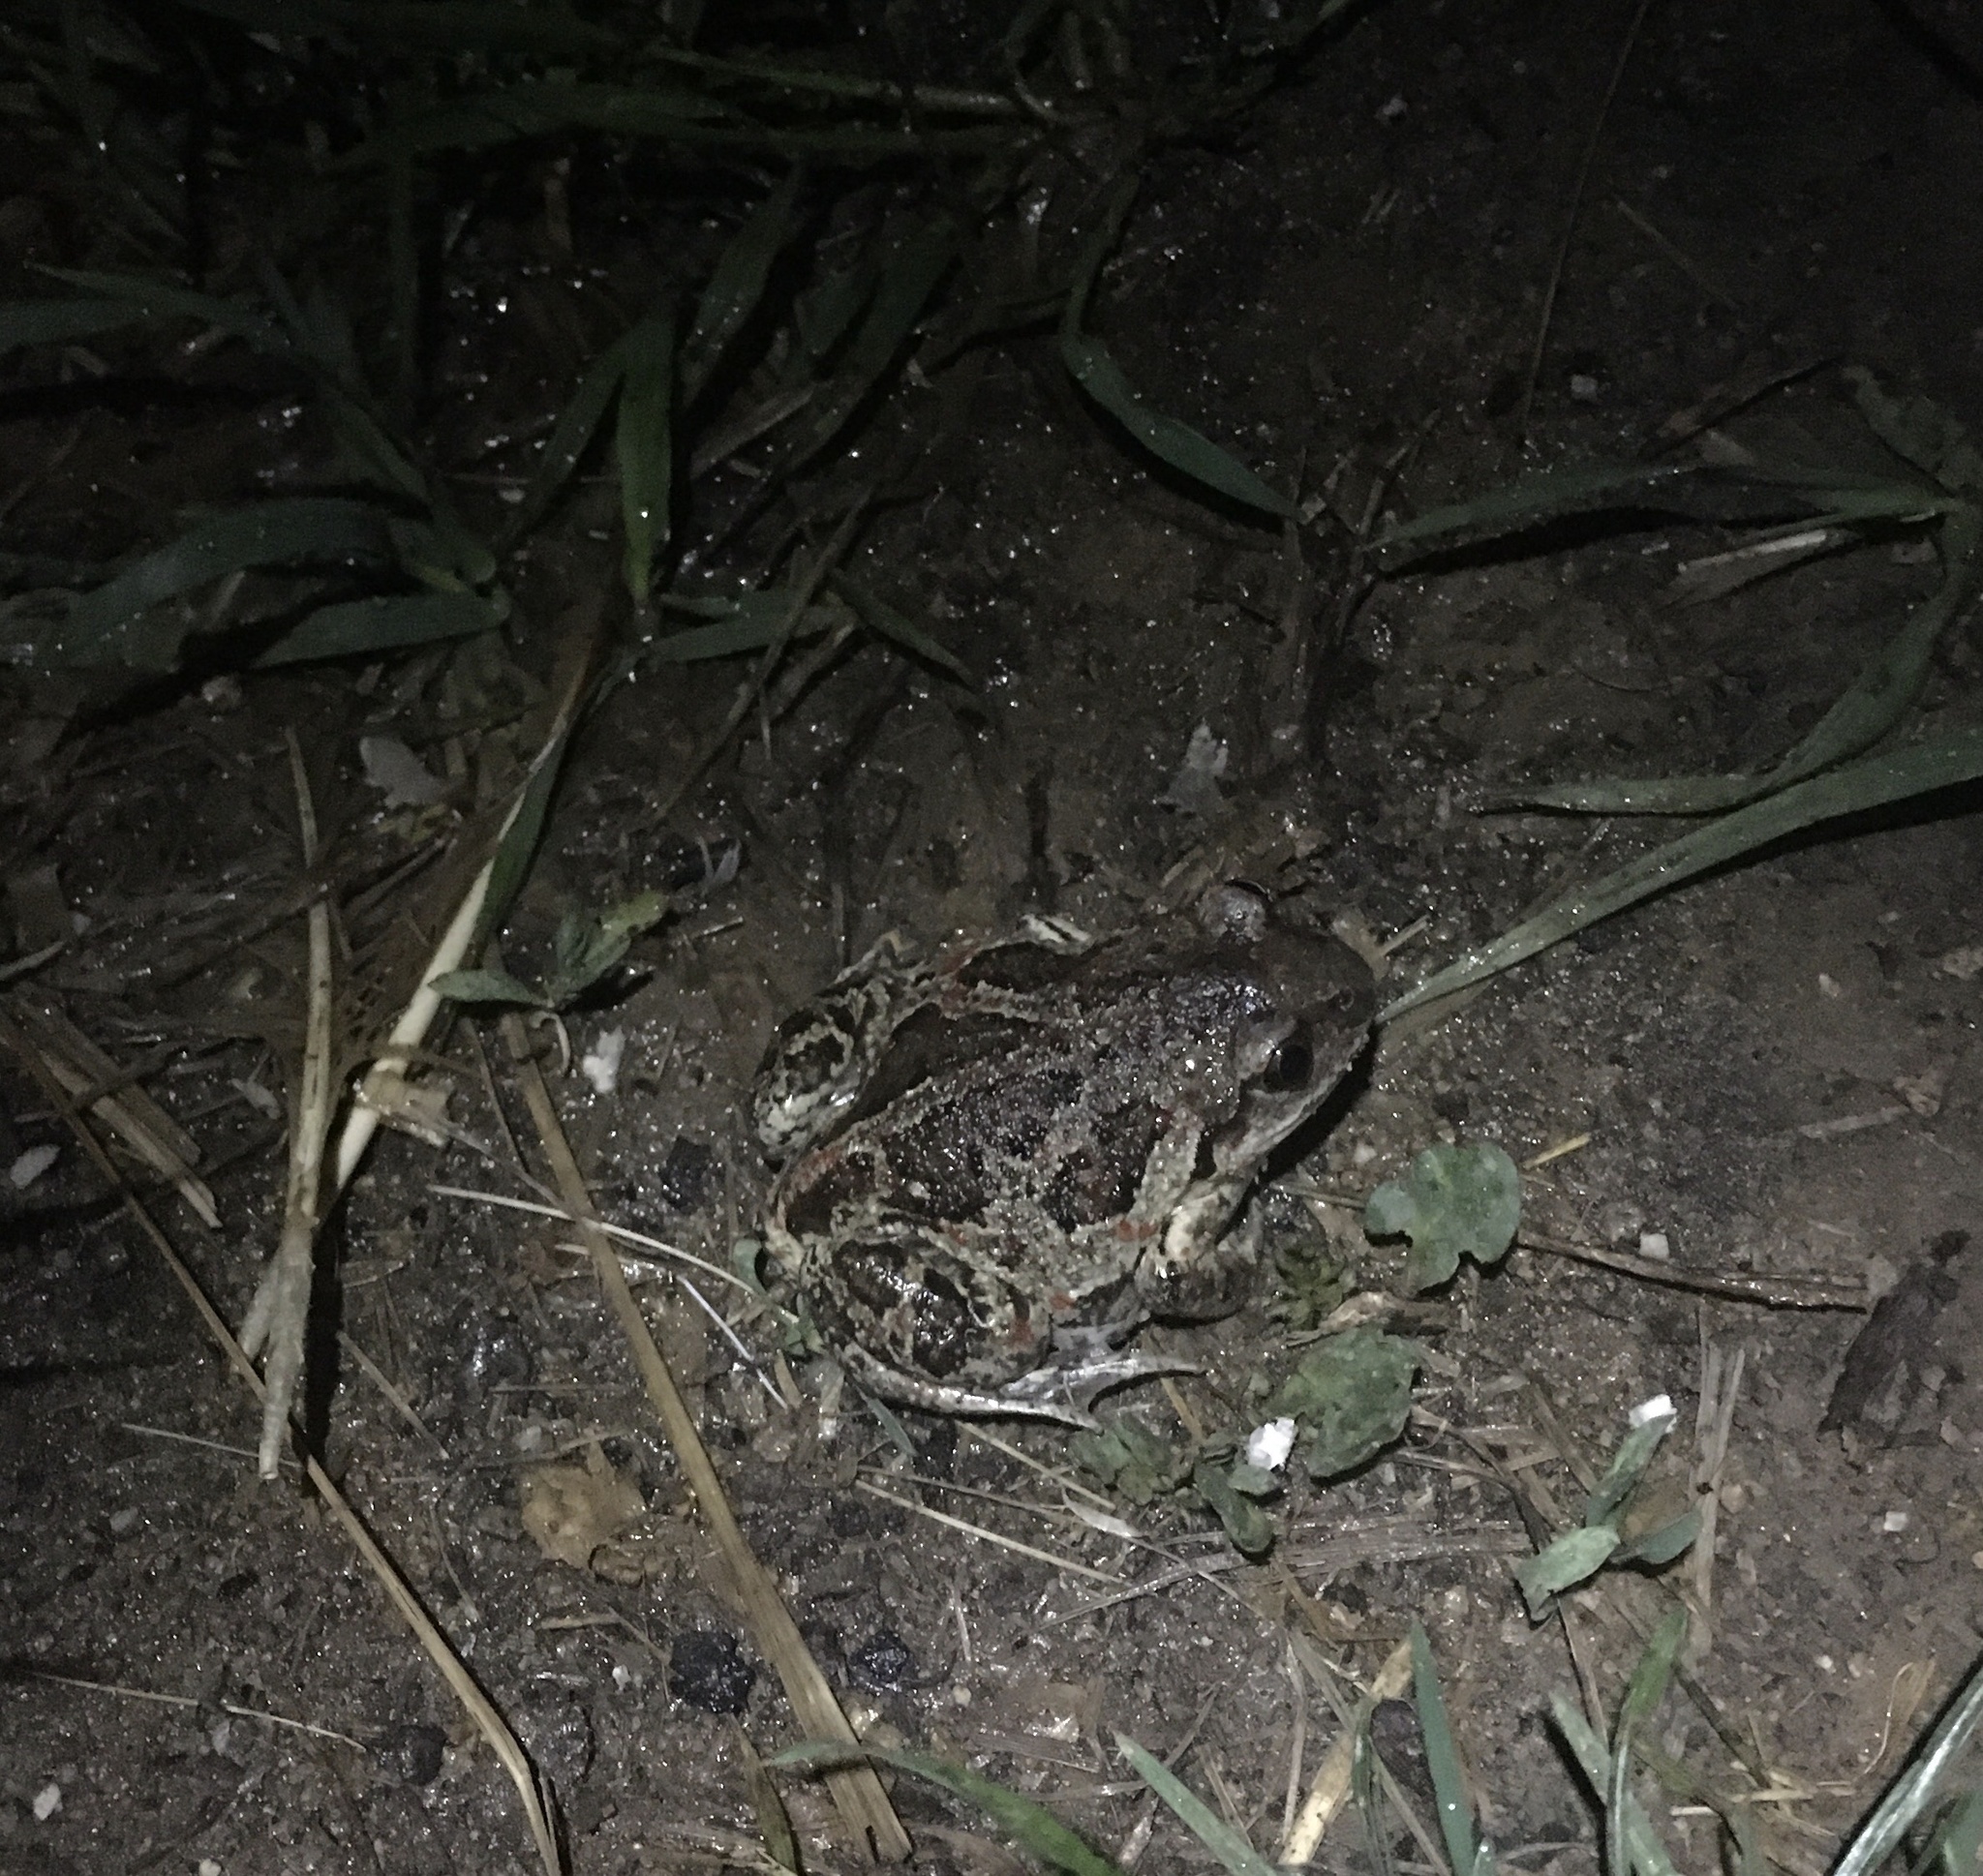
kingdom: Animalia
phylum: Chordata
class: Amphibia
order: Anura
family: Pelobatidae
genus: Pelobates
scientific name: Pelobates fuscus
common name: Common eurasian spadefoot toad
